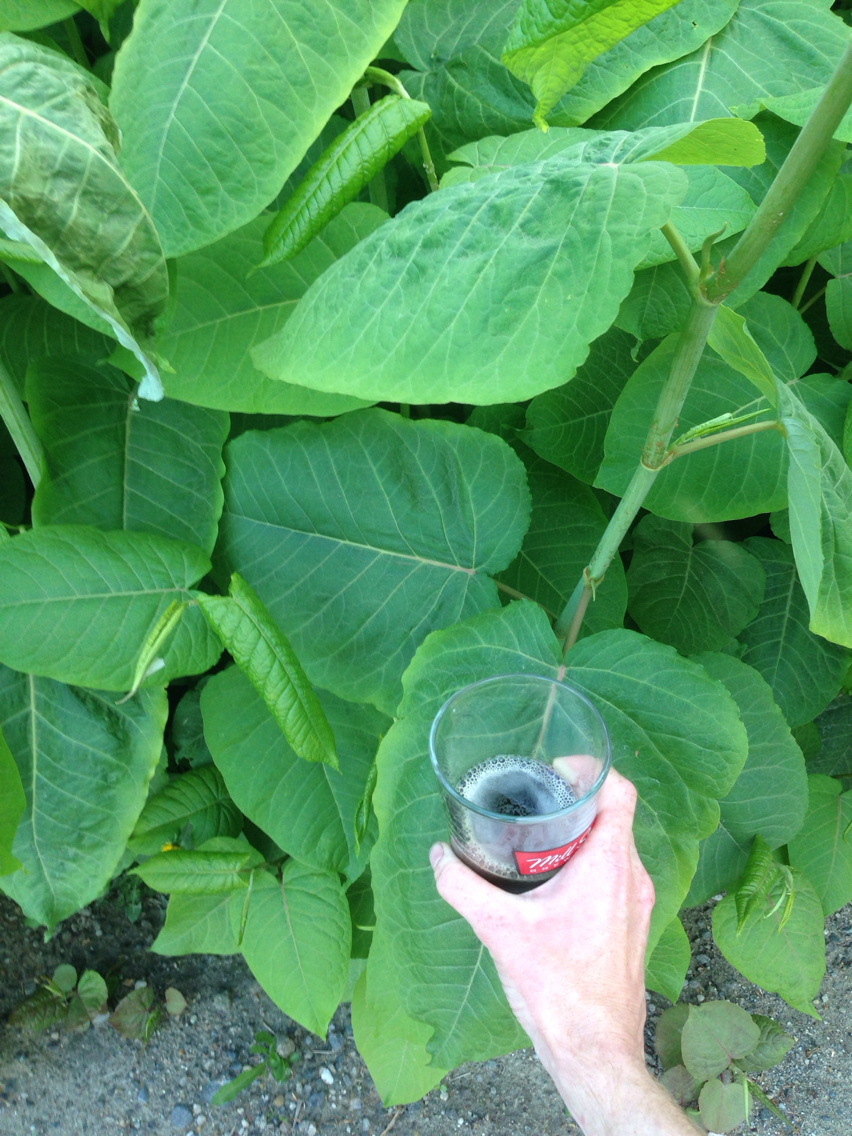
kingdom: Plantae
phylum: Tracheophyta
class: Magnoliopsida
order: Caryophyllales
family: Polygonaceae
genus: Reynoutria
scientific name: Reynoutria sachalinensis
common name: Giant knotweed
